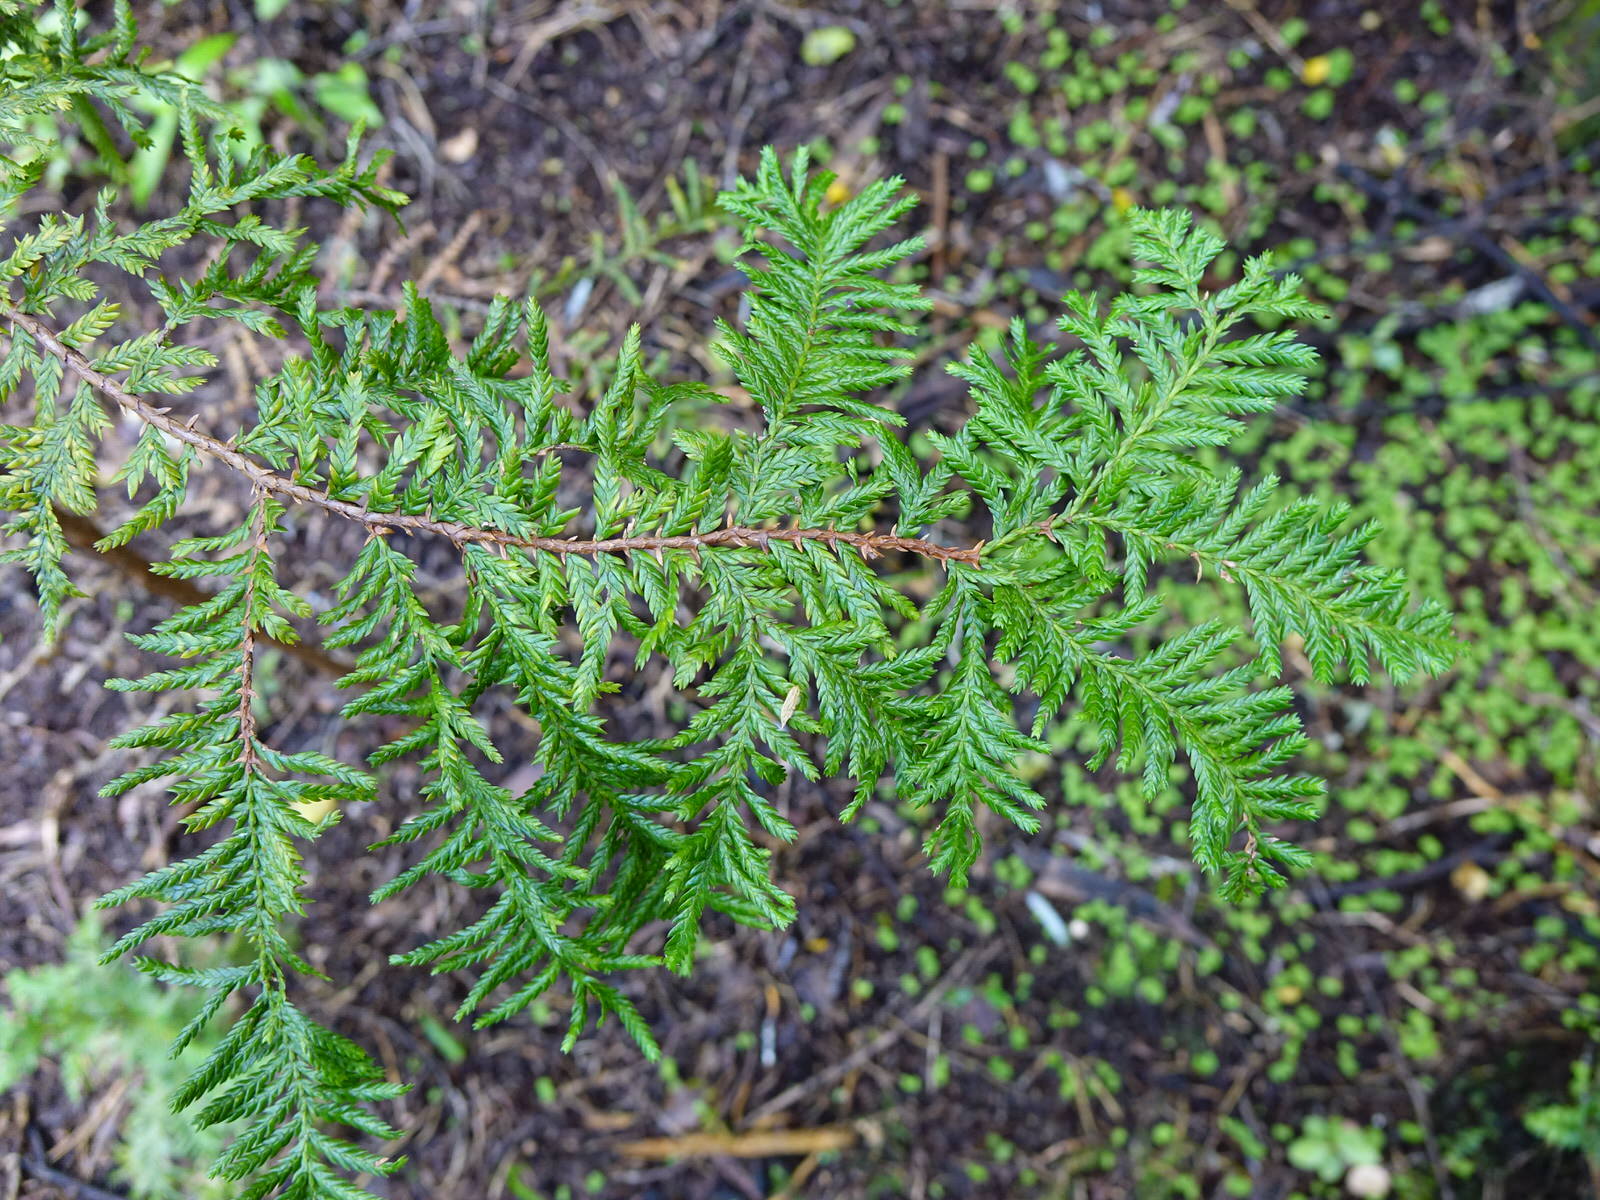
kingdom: Plantae
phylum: Tracheophyta
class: Pinopsida
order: Pinales
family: Cupressaceae
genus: Libocedrus
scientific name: Libocedrus plumosa
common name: New zealand cedar
